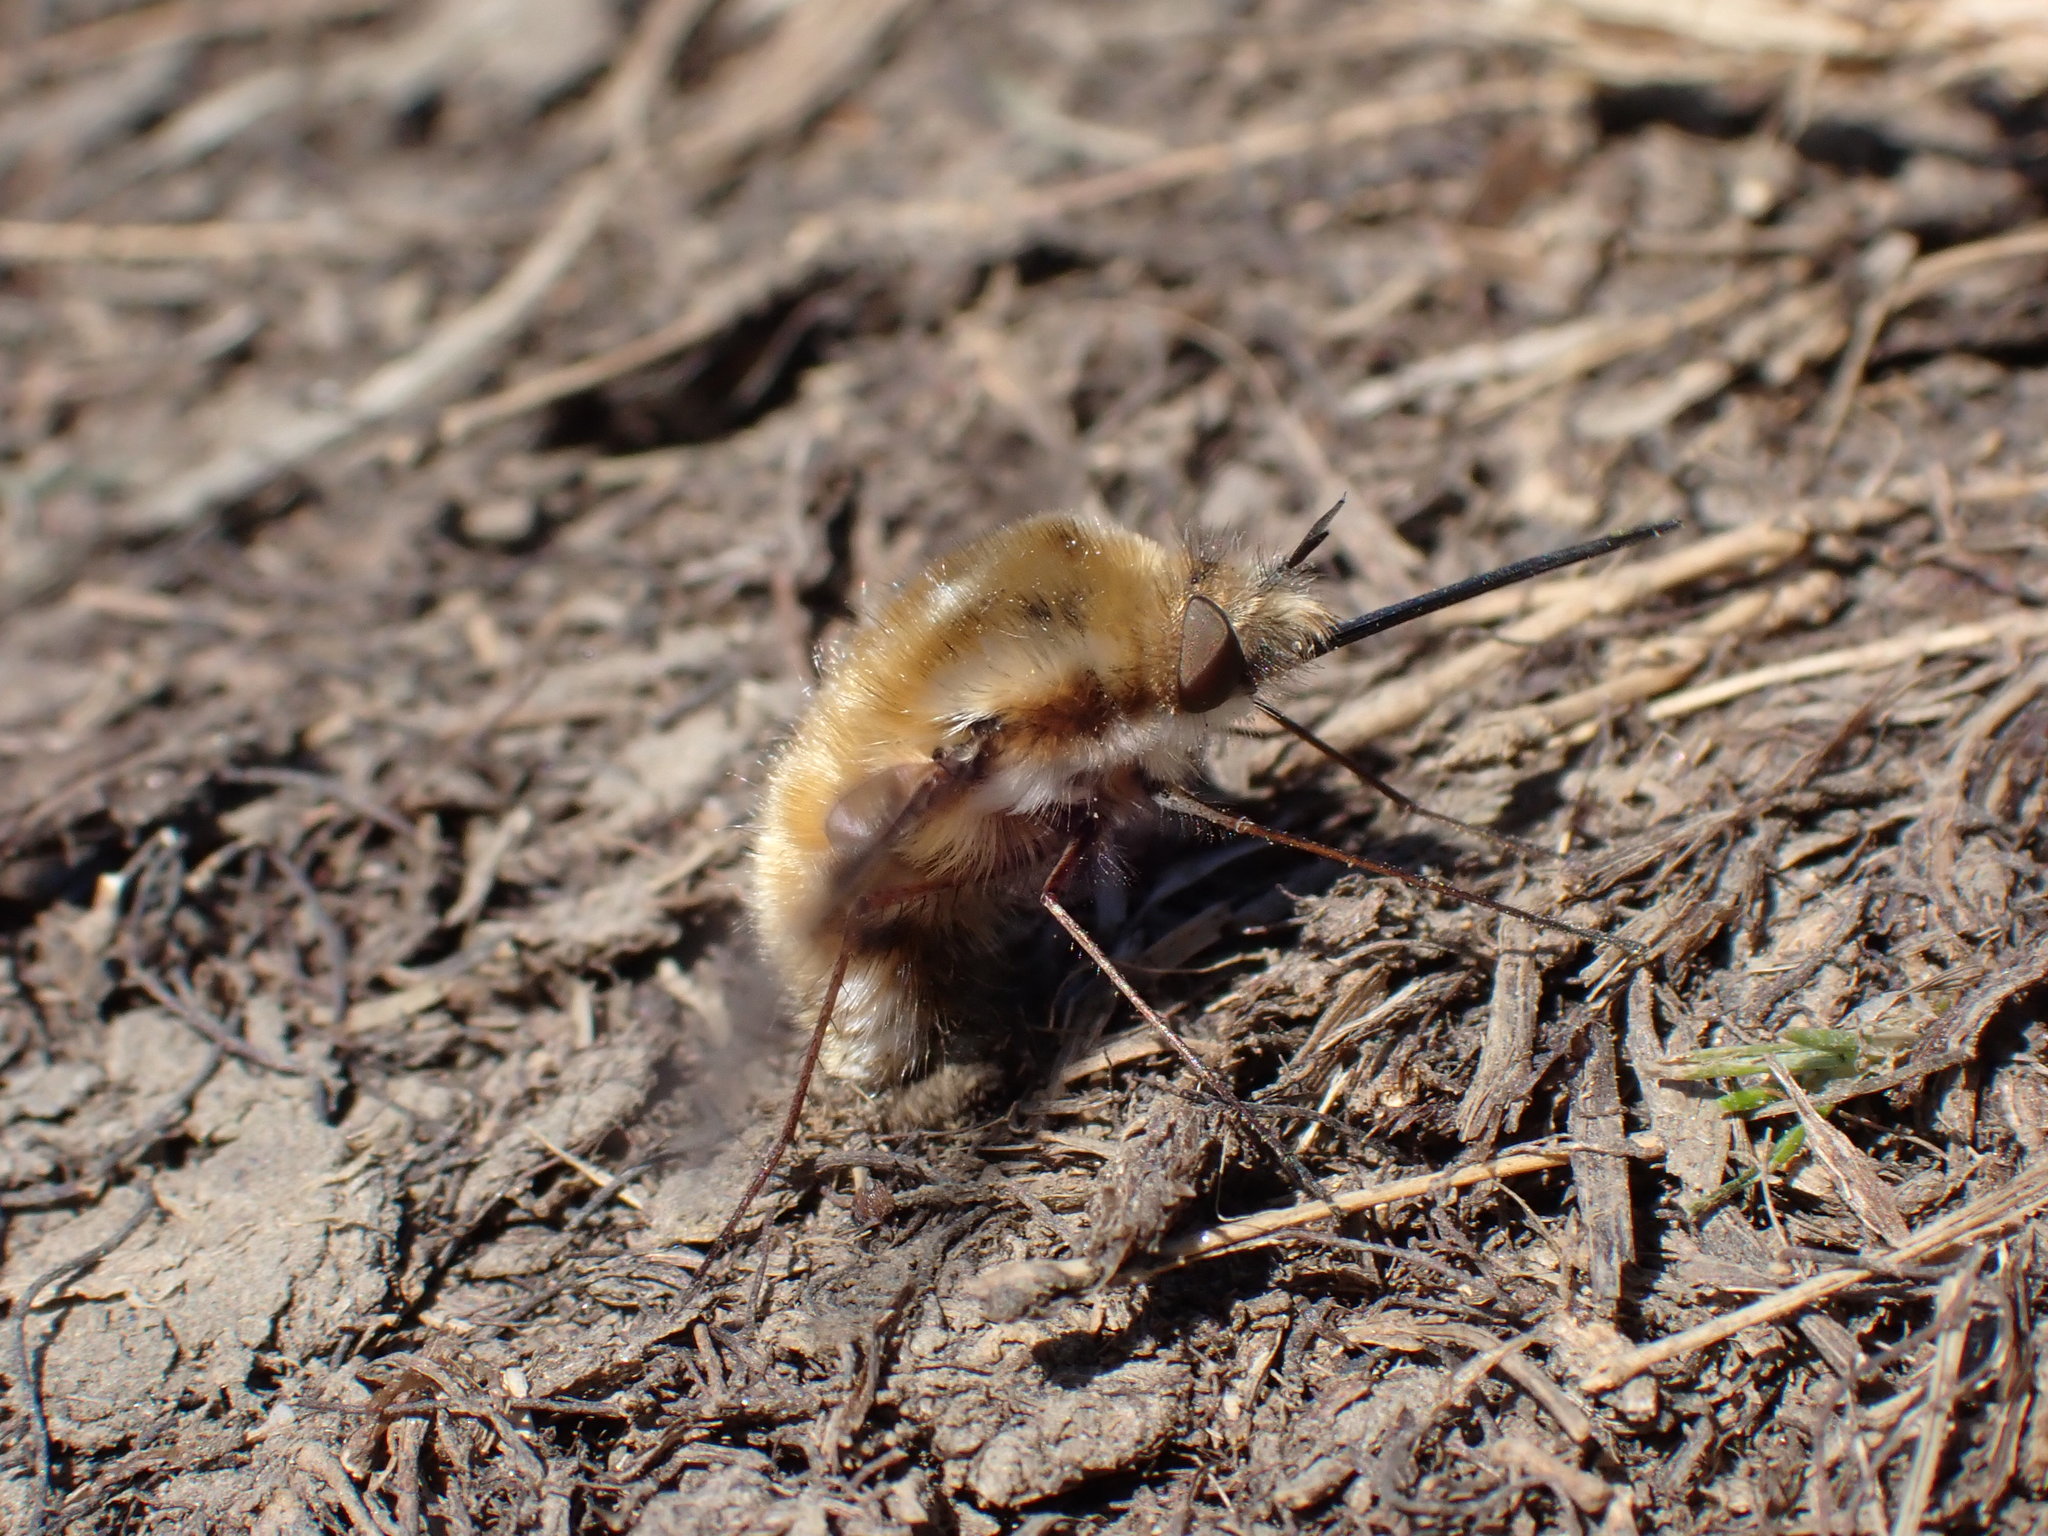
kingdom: Animalia
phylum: Arthropoda
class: Insecta
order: Diptera
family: Bombyliidae
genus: Bombylius
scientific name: Bombylius major
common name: Bee fly
